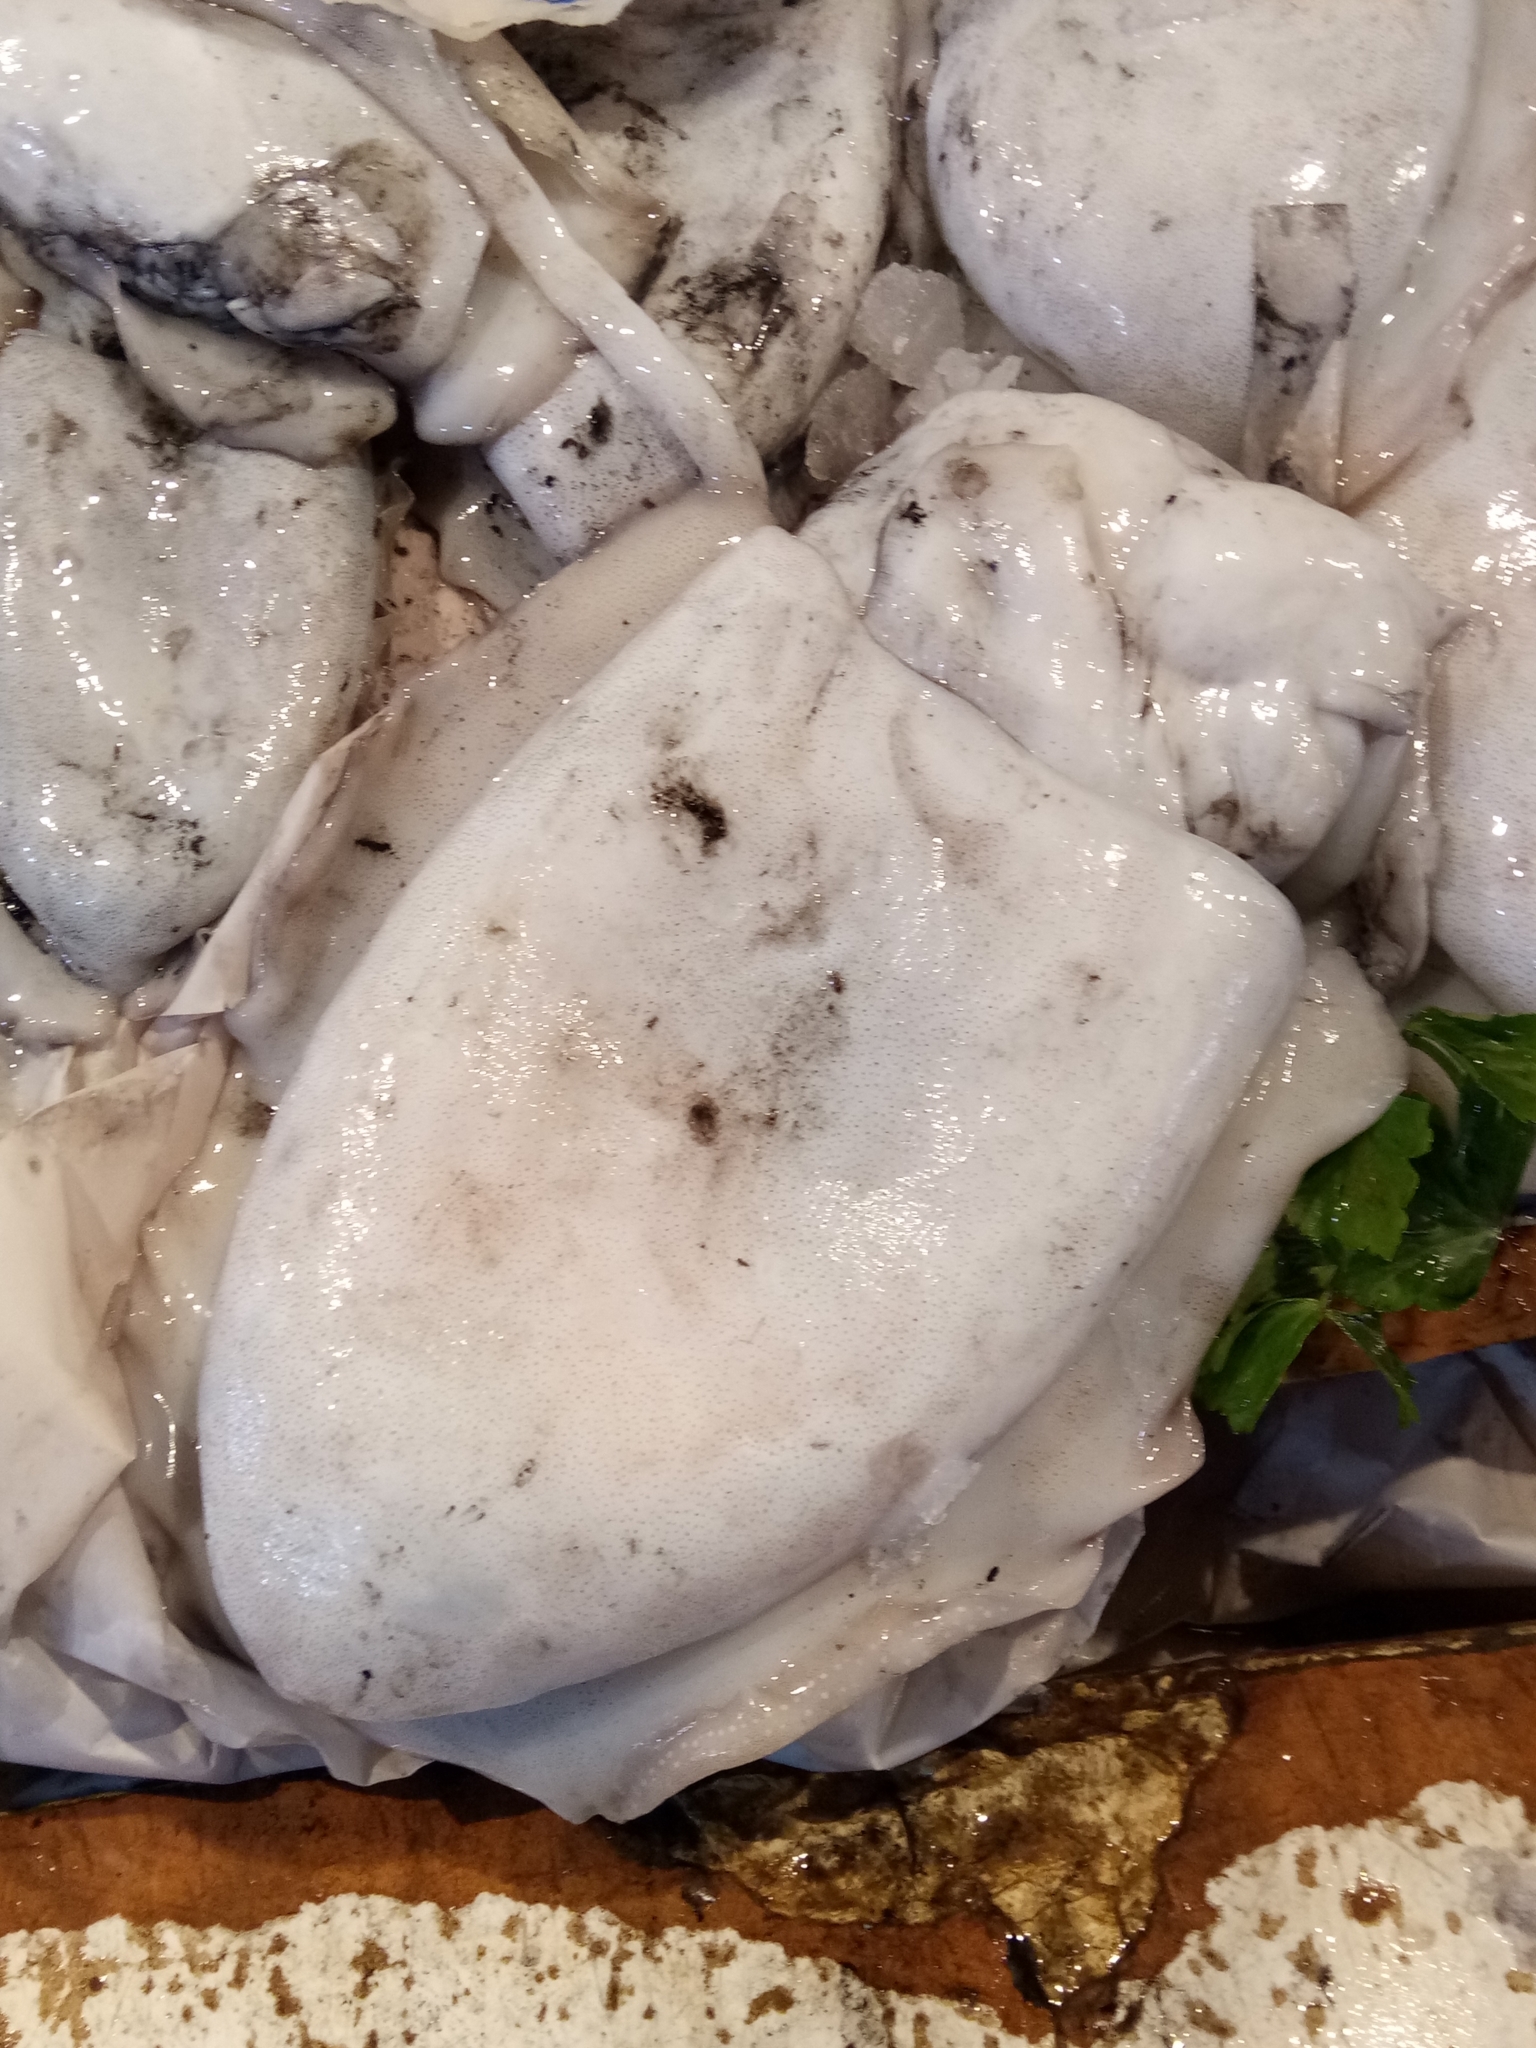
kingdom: Animalia
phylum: Mollusca
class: Cephalopoda
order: Sepiida
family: Sepiidae
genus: Sepia
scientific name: Sepia officinalis
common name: Common cuttlefish
